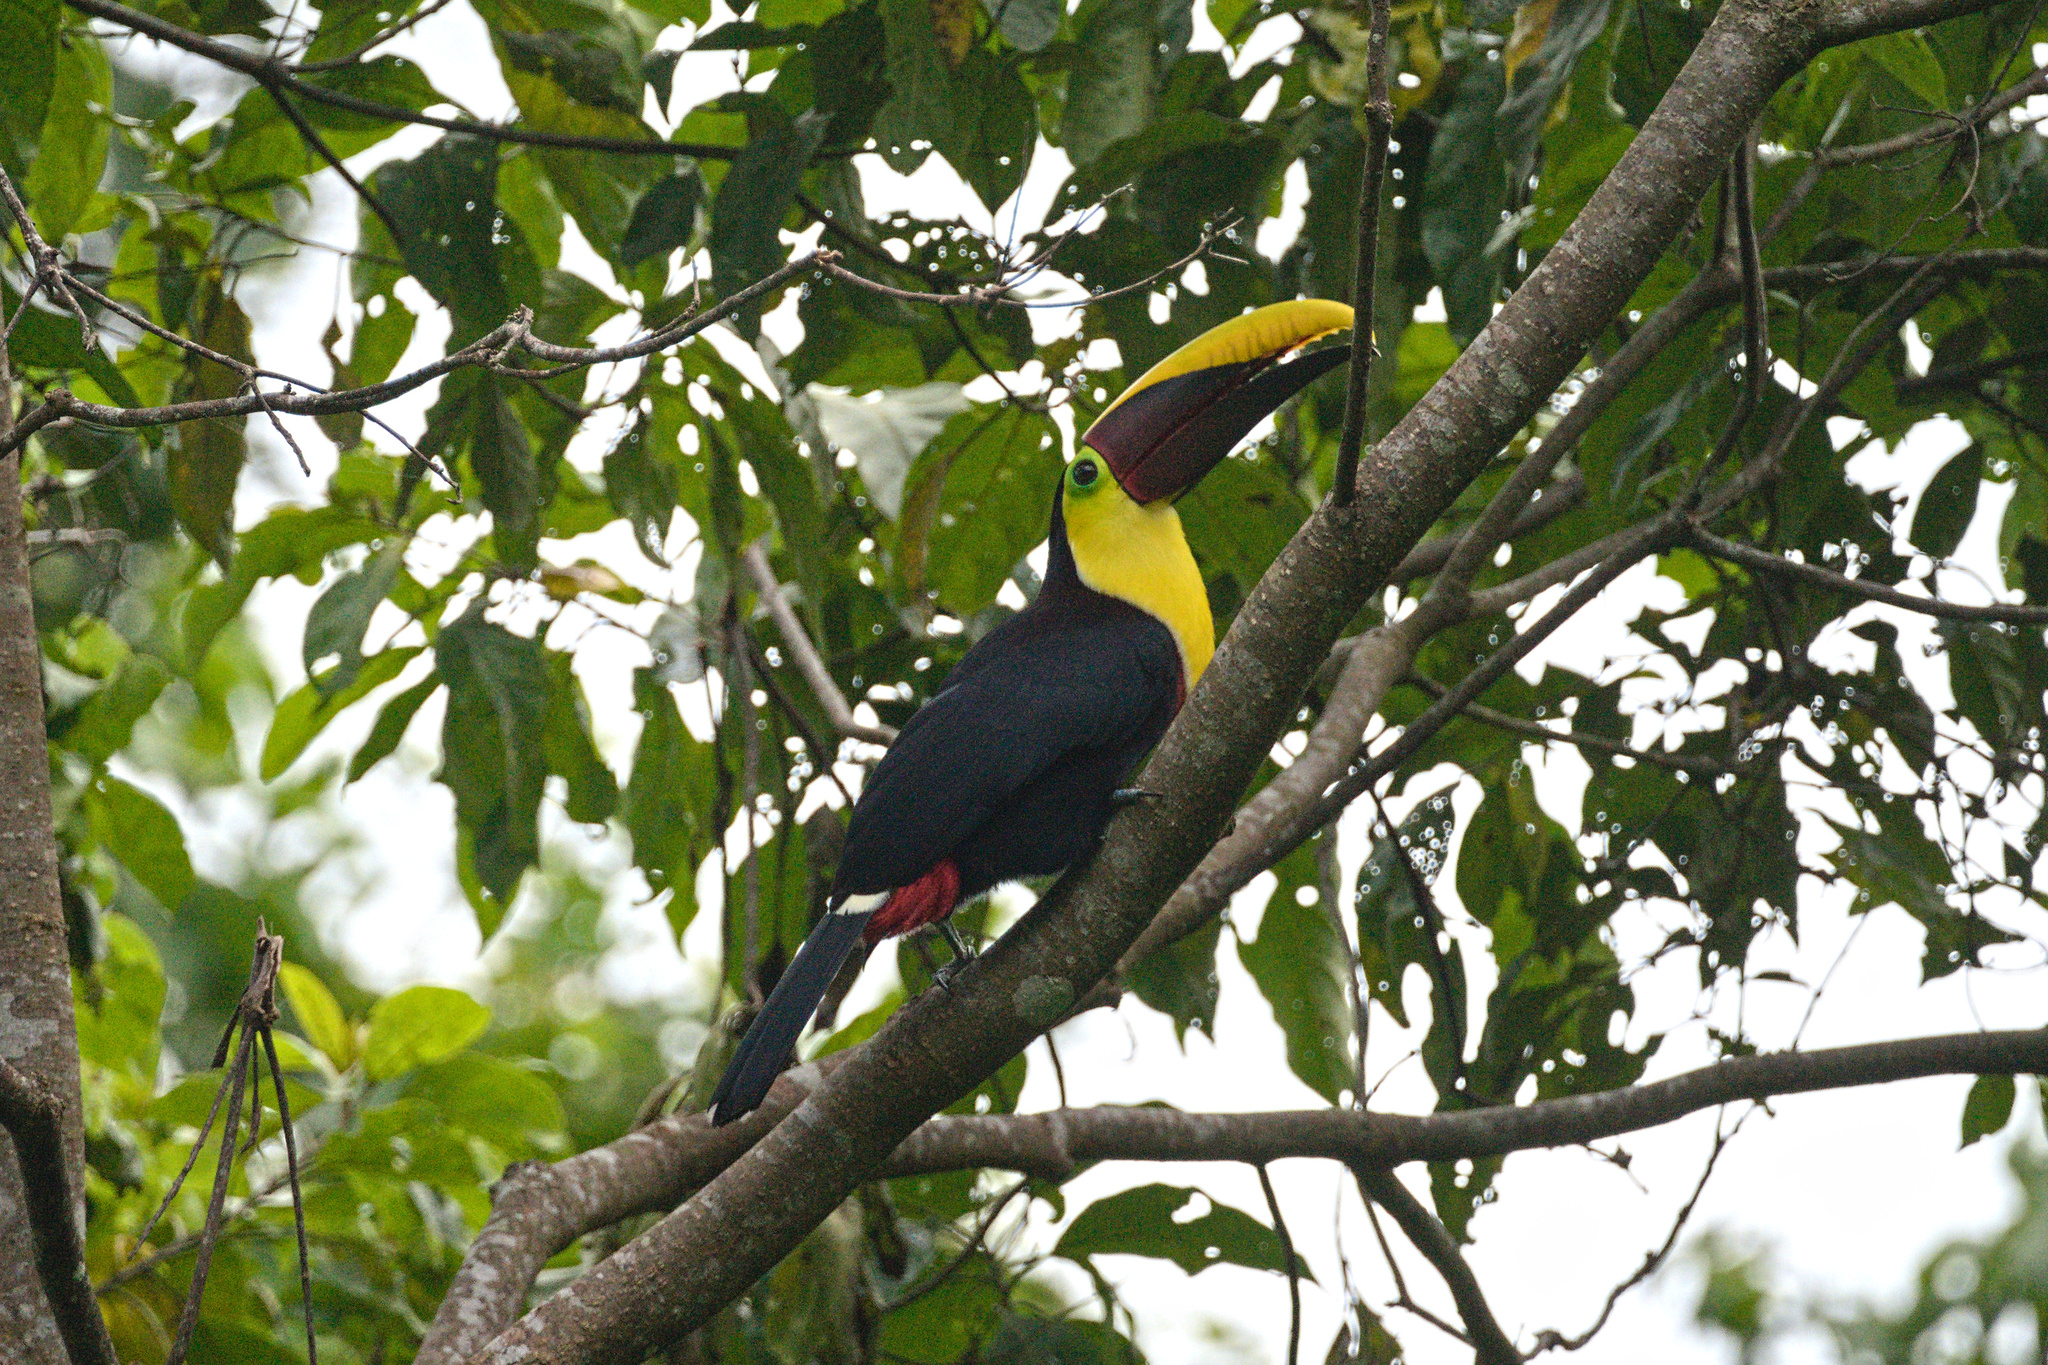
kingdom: Animalia
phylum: Chordata
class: Aves
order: Piciformes
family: Ramphastidae
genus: Ramphastos
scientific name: Ramphastos ambiguus
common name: Yellow-throated toucan
